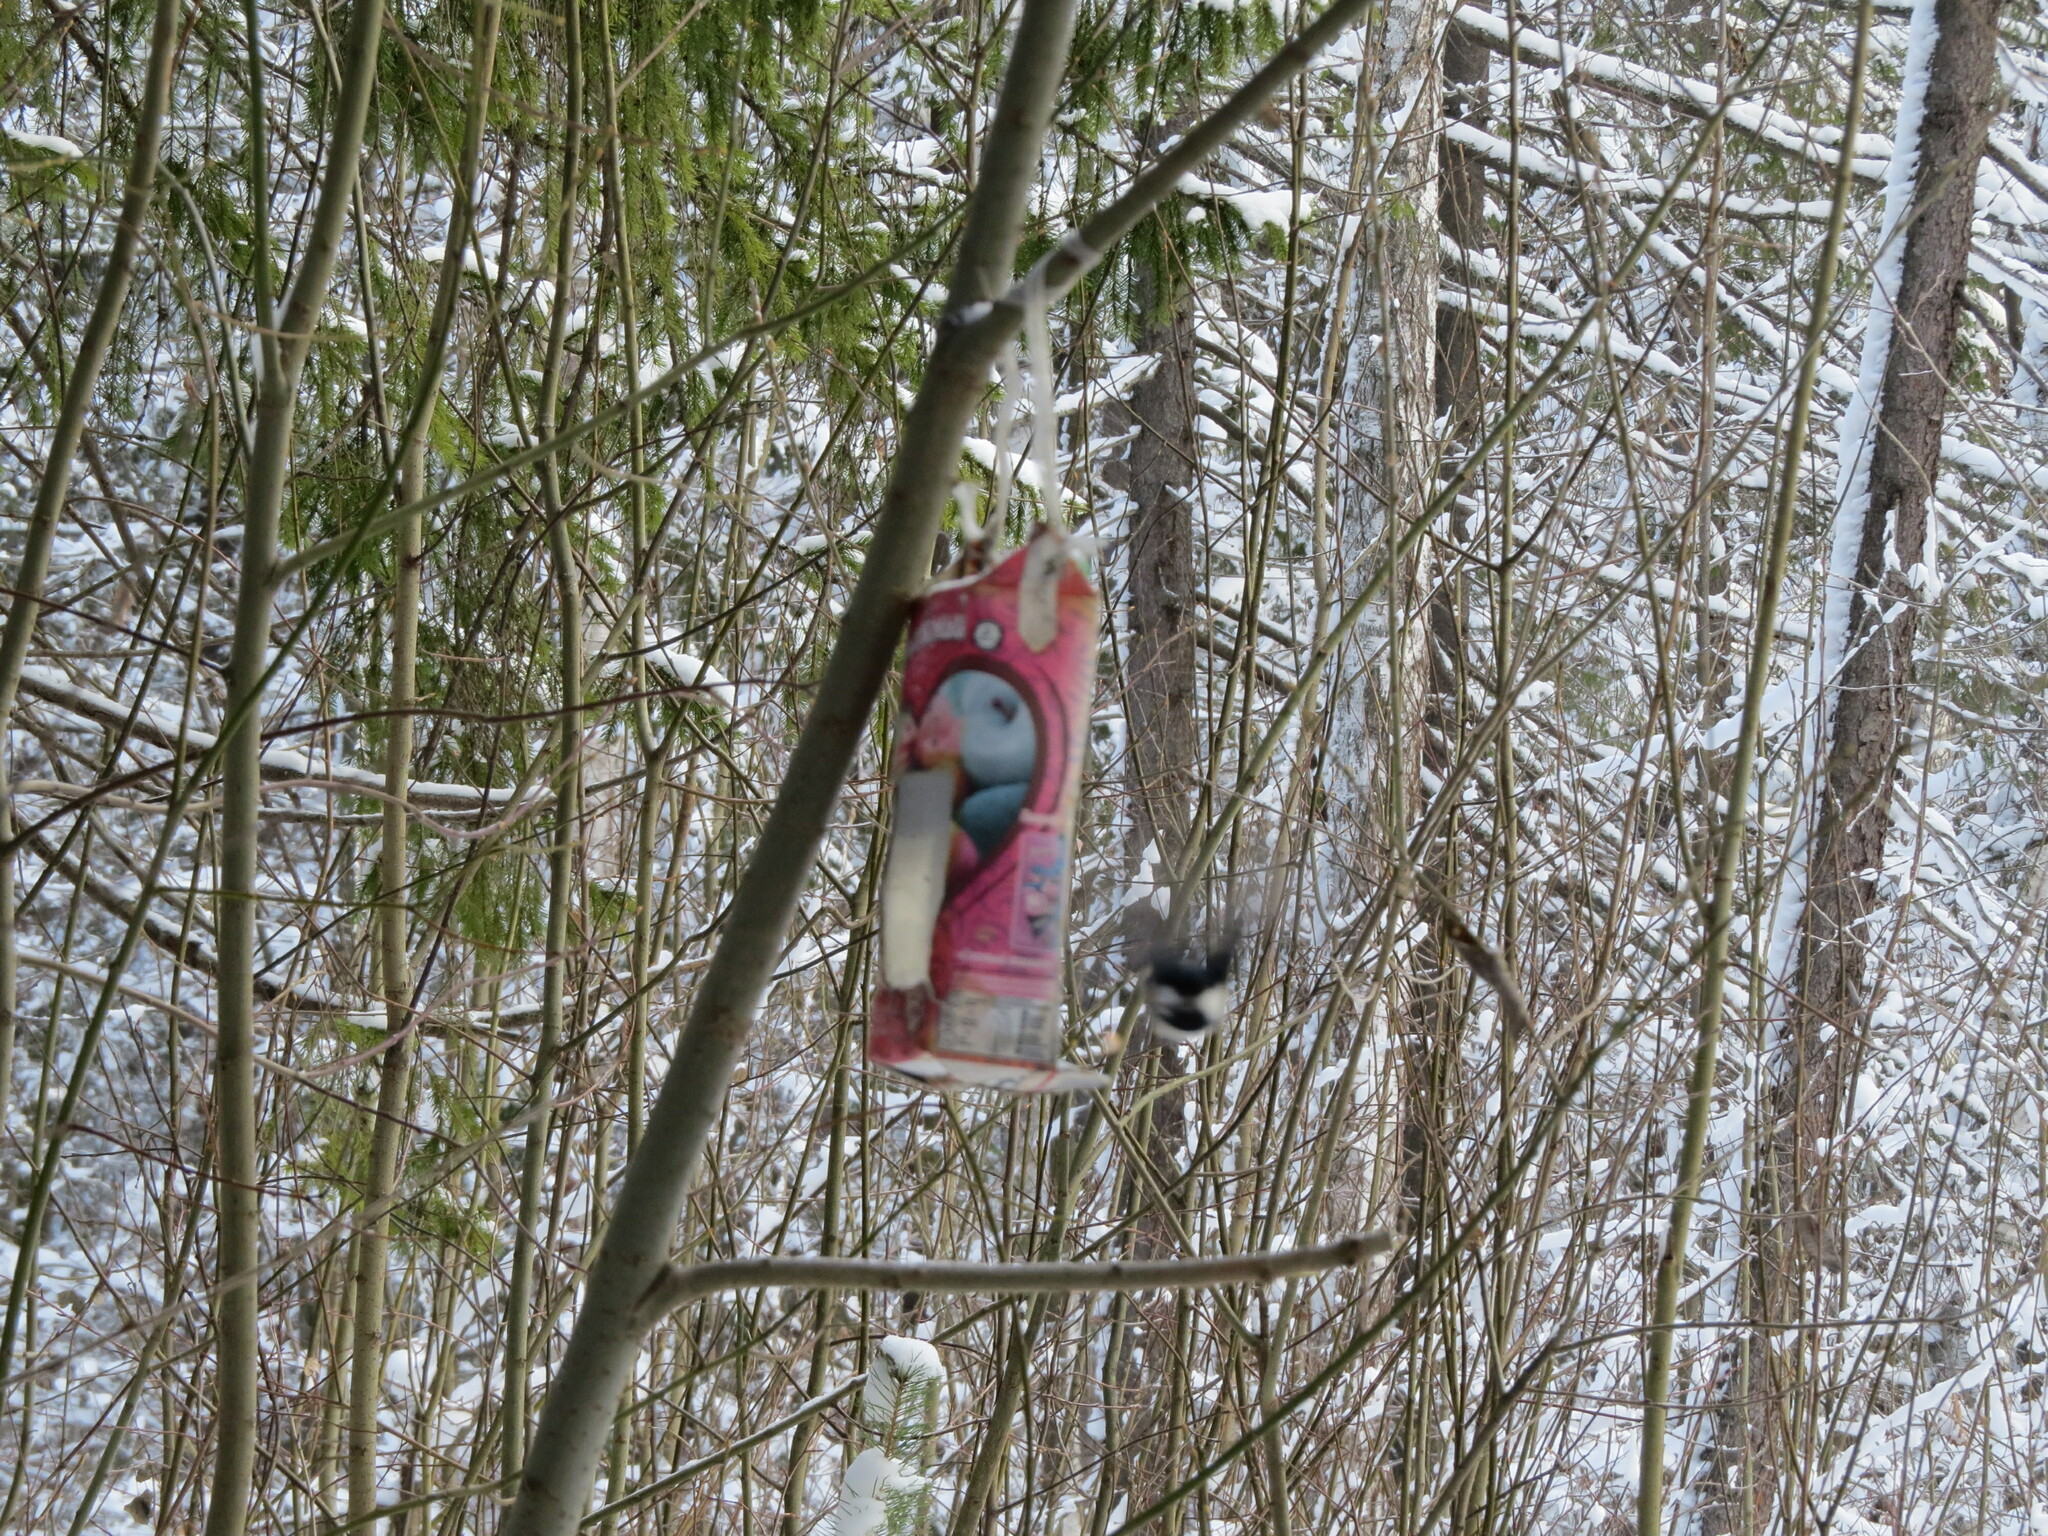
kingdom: Animalia
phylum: Chordata
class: Aves
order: Passeriformes
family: Paridae
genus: Periparus
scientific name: Periparus ater
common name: Coal tit
